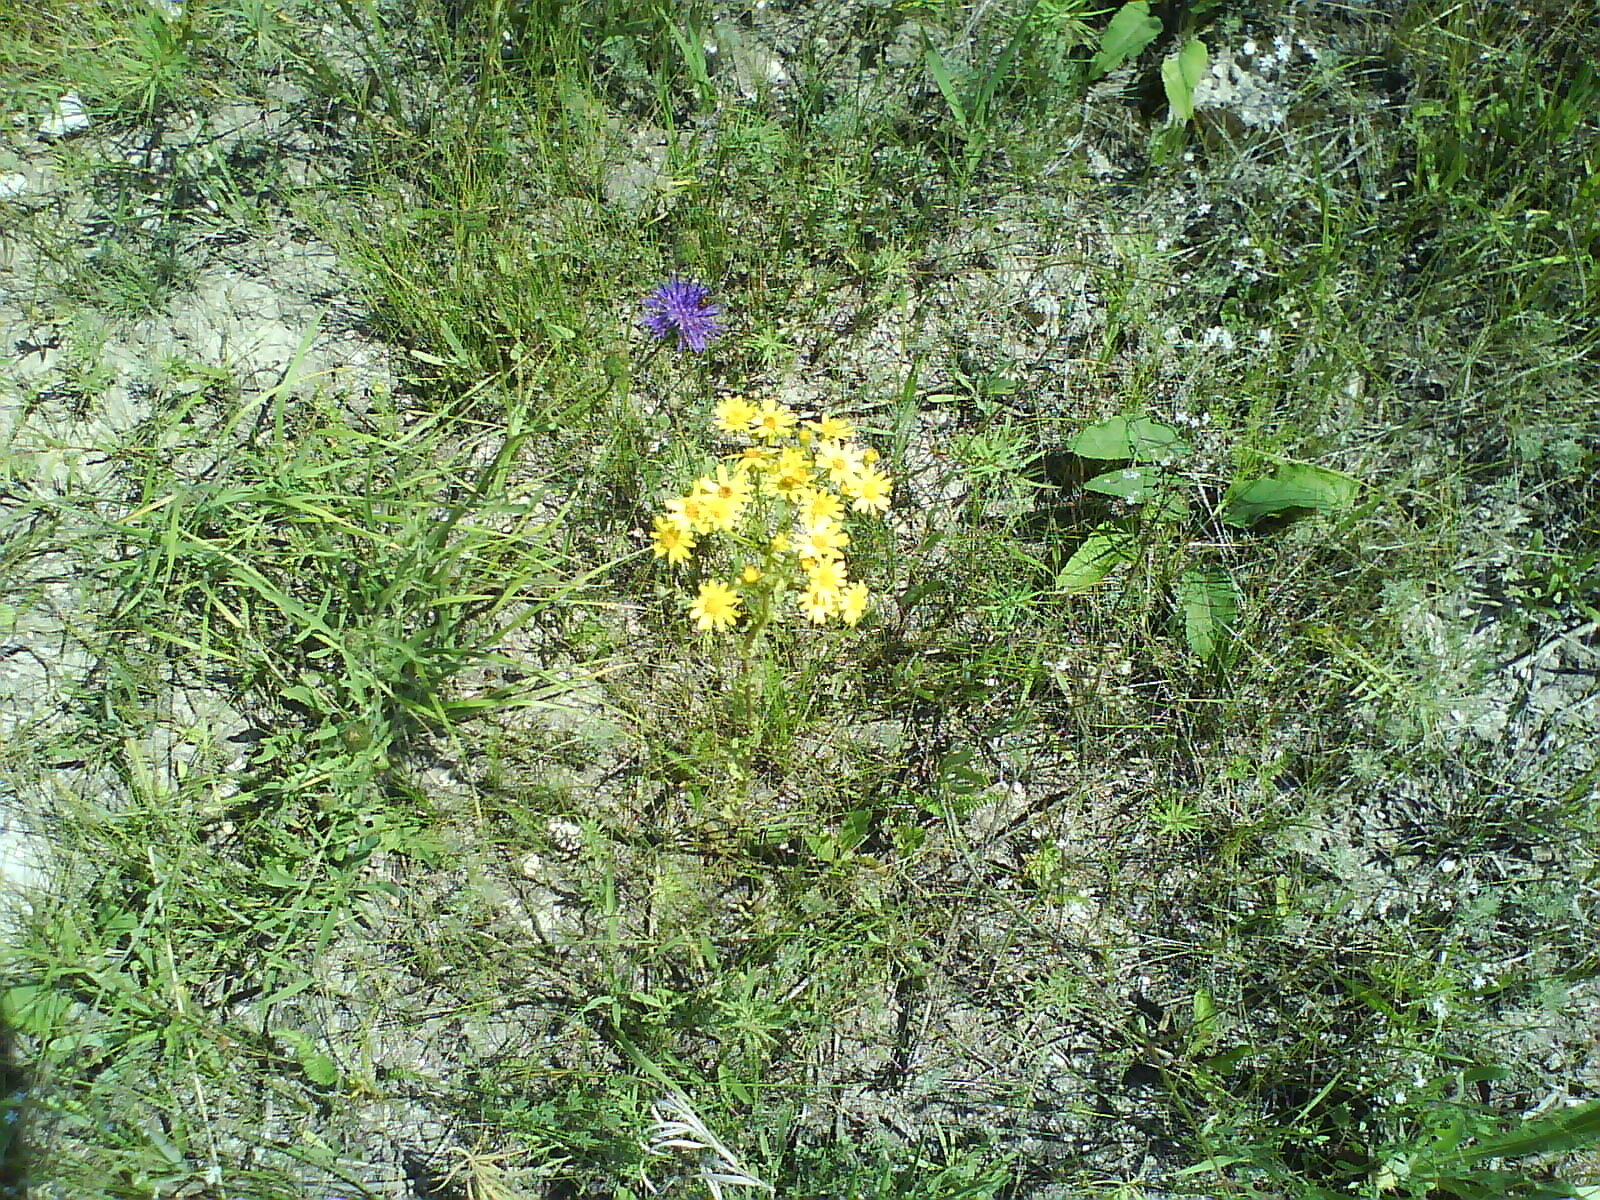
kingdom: Plantae
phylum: Tracheophyta
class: Magnoliopsida
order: Asterales
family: Asteraceae
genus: Jacobaea
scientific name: Jacobaea vulgaris
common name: Stinking willie
